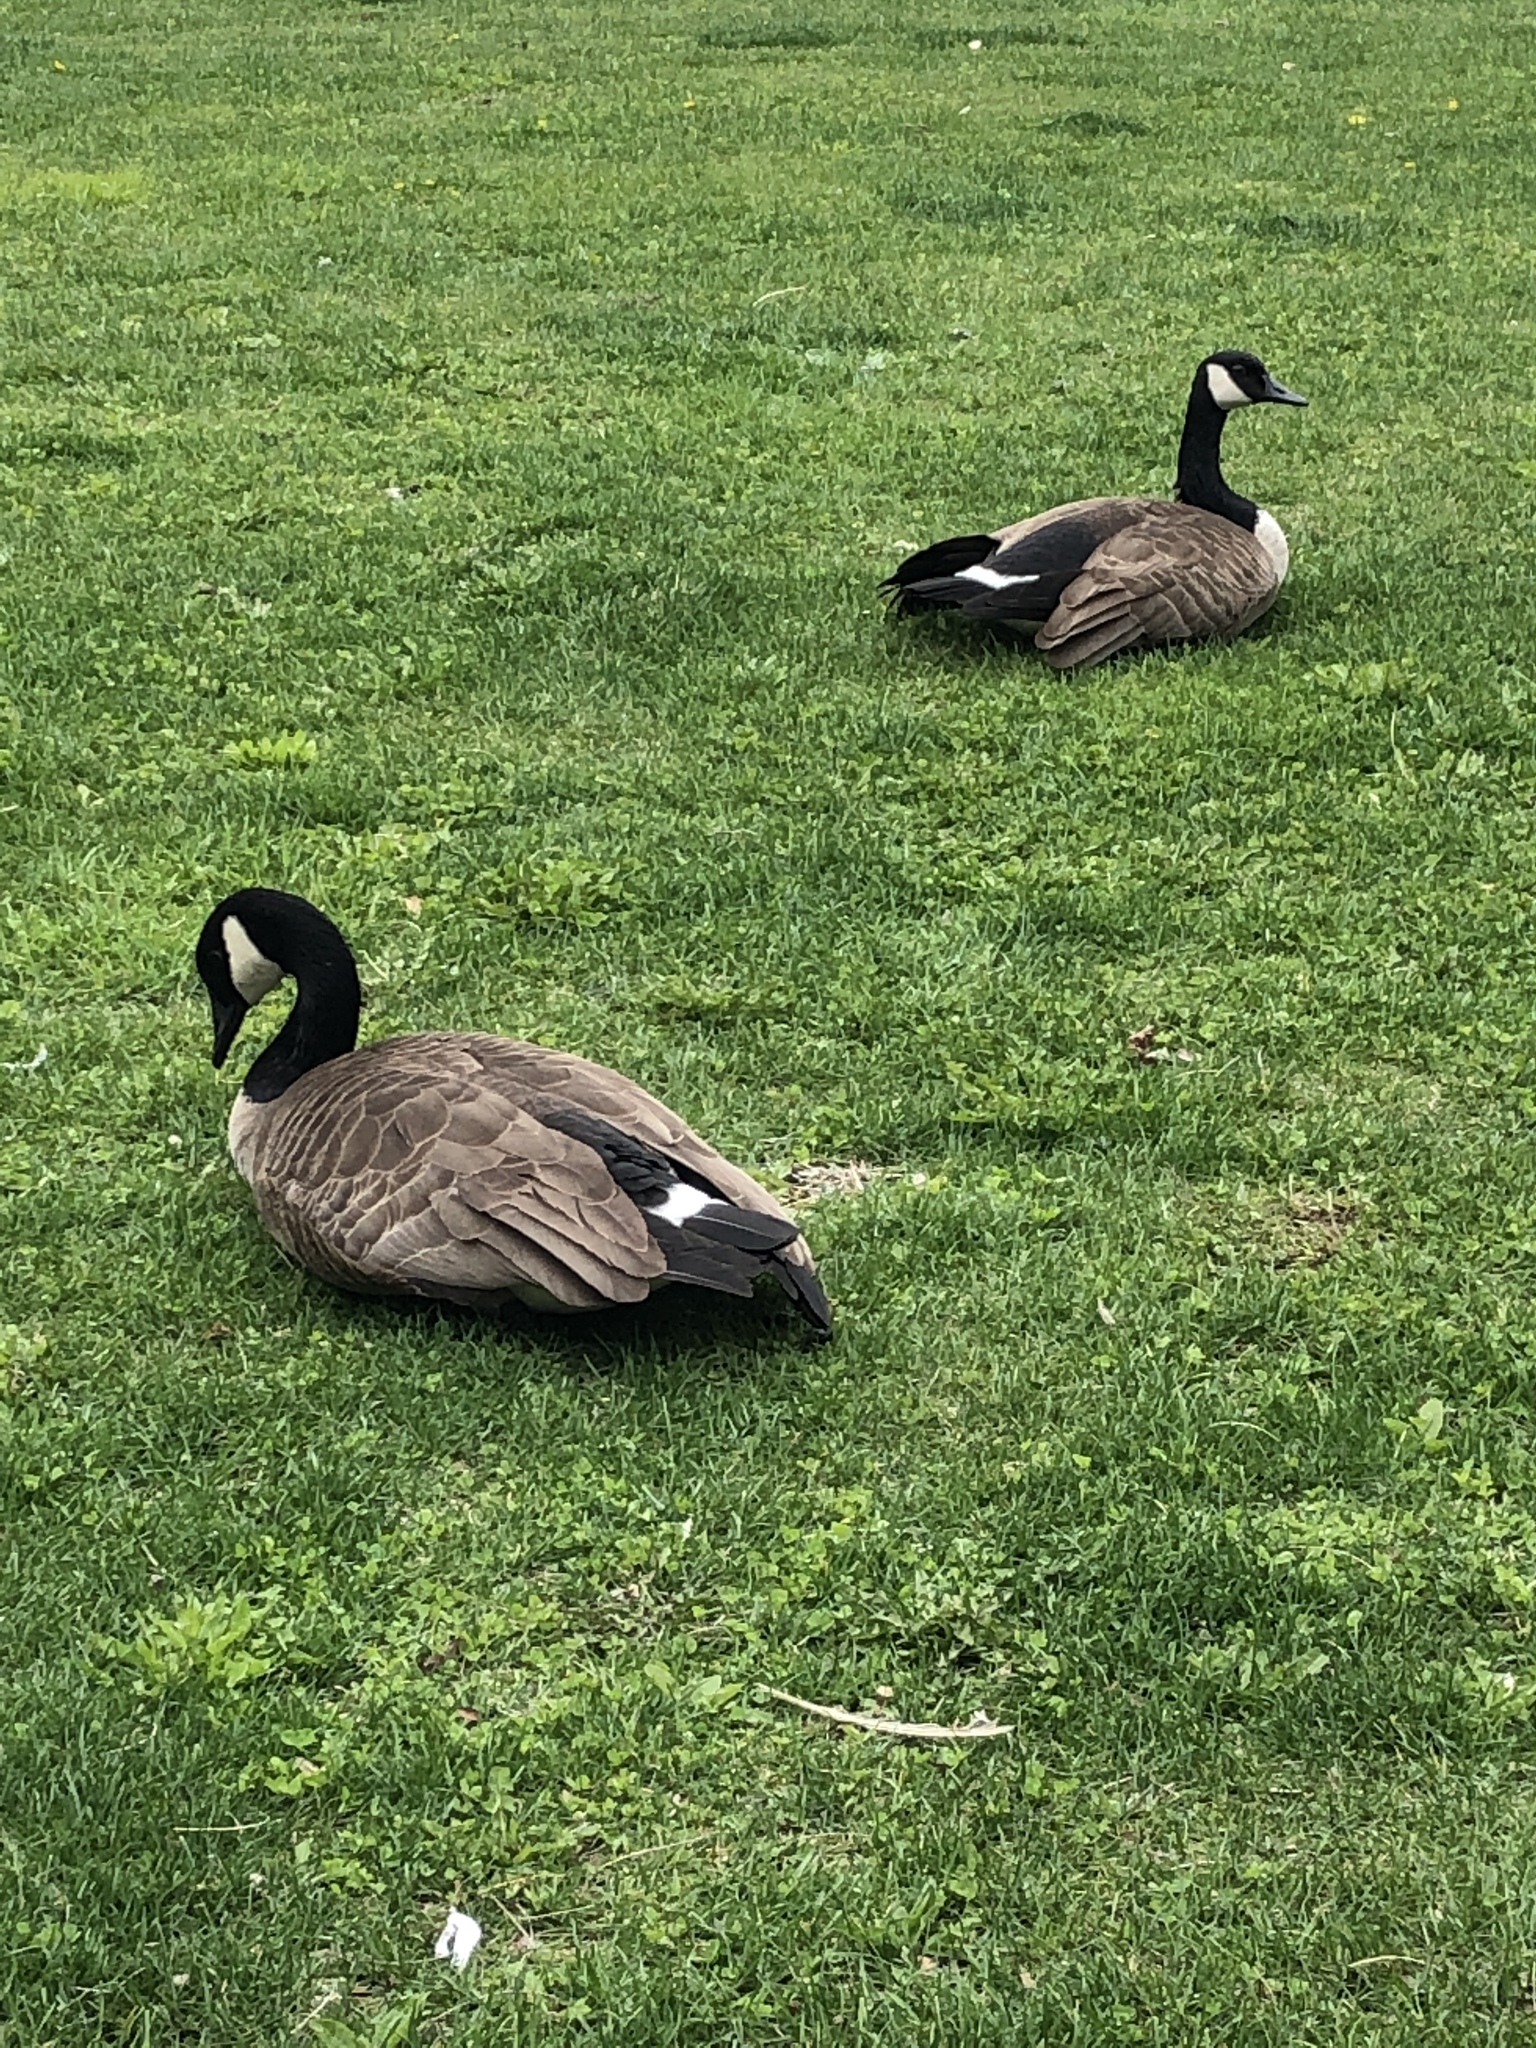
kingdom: Animalia
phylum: Chordata
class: Aves
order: Anseriformes
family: Anatidae
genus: Branta
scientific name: Branta canadensis
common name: Canada goose
